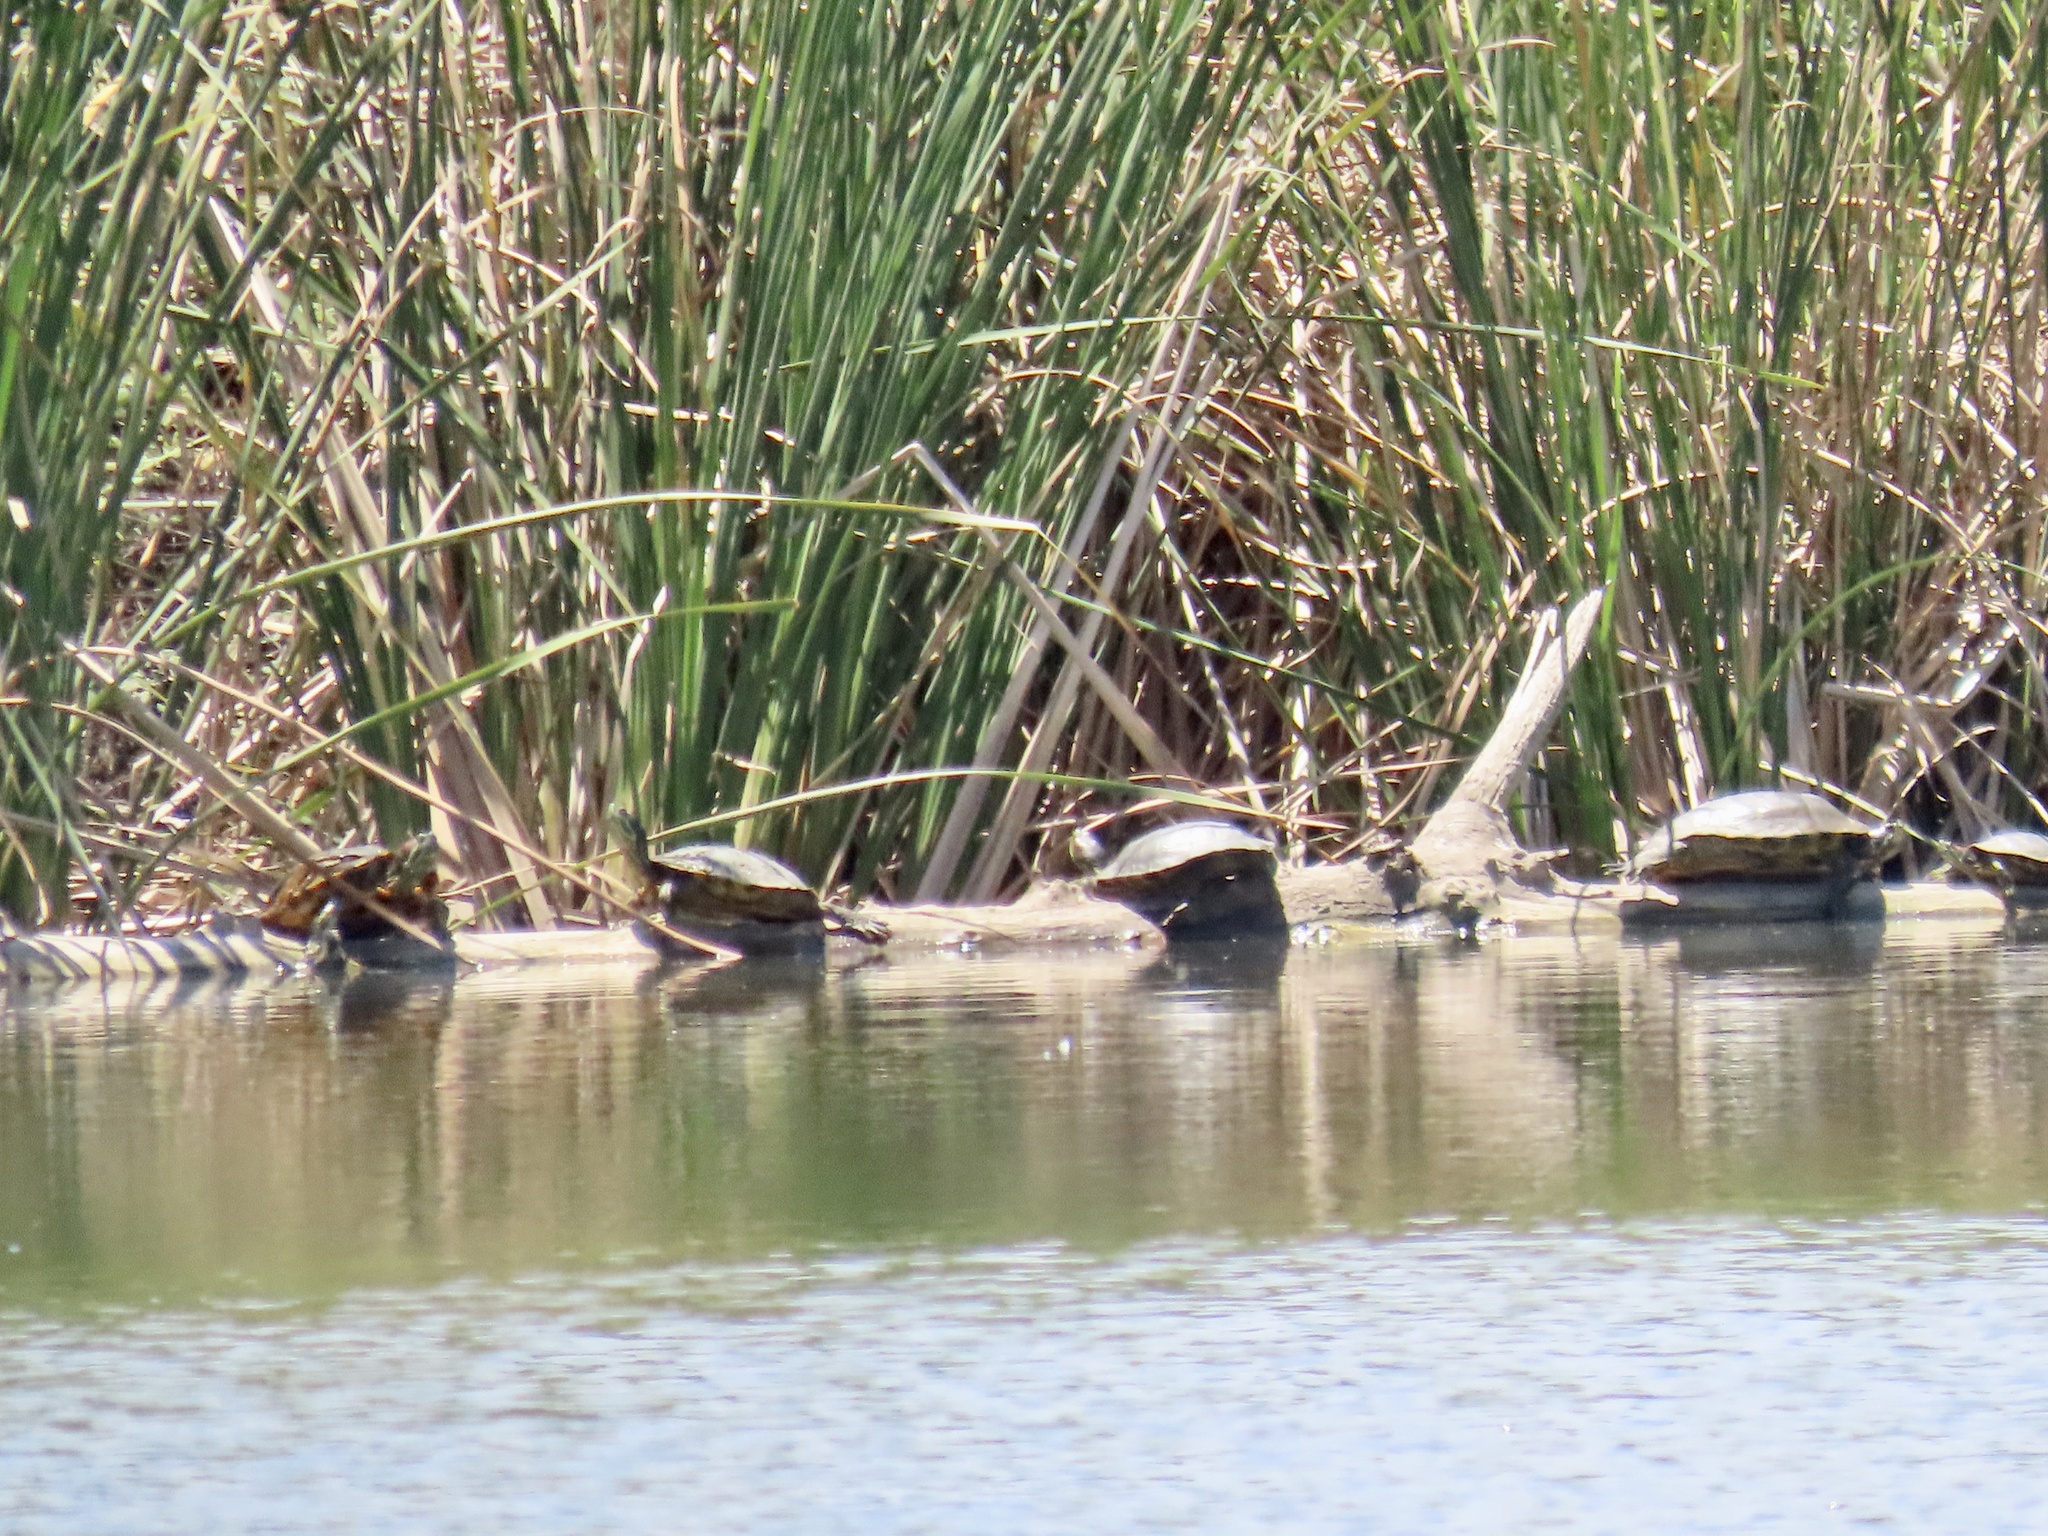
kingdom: Animalia
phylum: Chordata
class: Testudines
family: Emydidae
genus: Trachemys
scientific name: Trachemys scripta
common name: Slider
